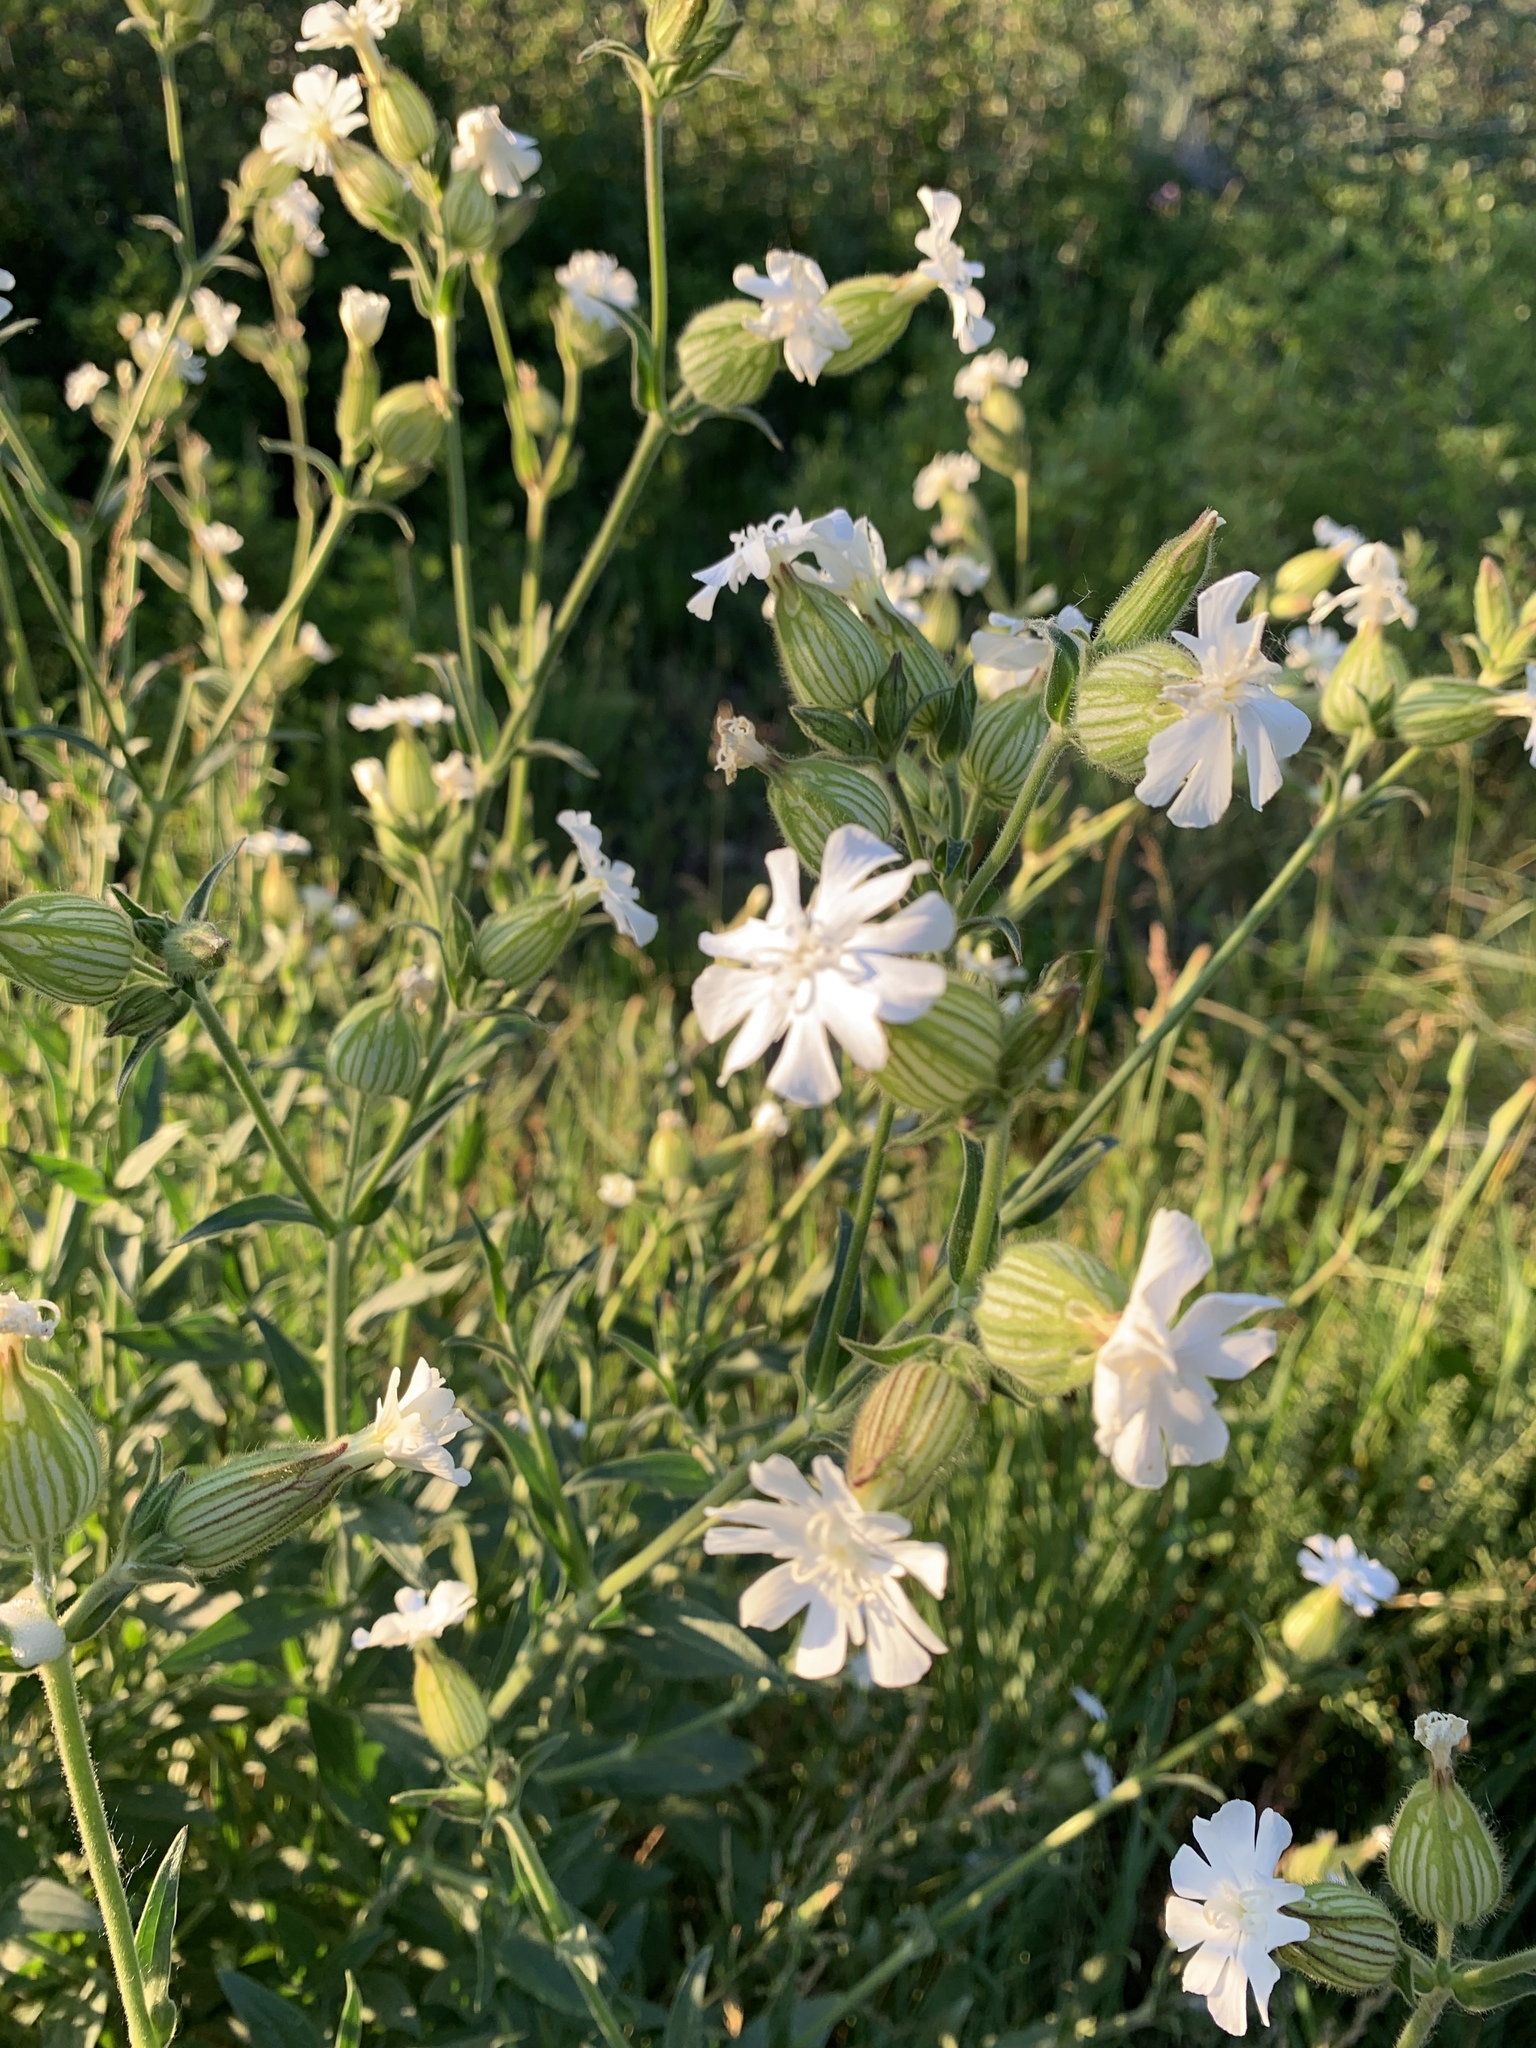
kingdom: Plantae
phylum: Tracheophyta
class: Magnoliopsida
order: Caryophyllales
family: Caryophyllaceae
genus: Silene
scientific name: Silene latifolia
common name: White campion
